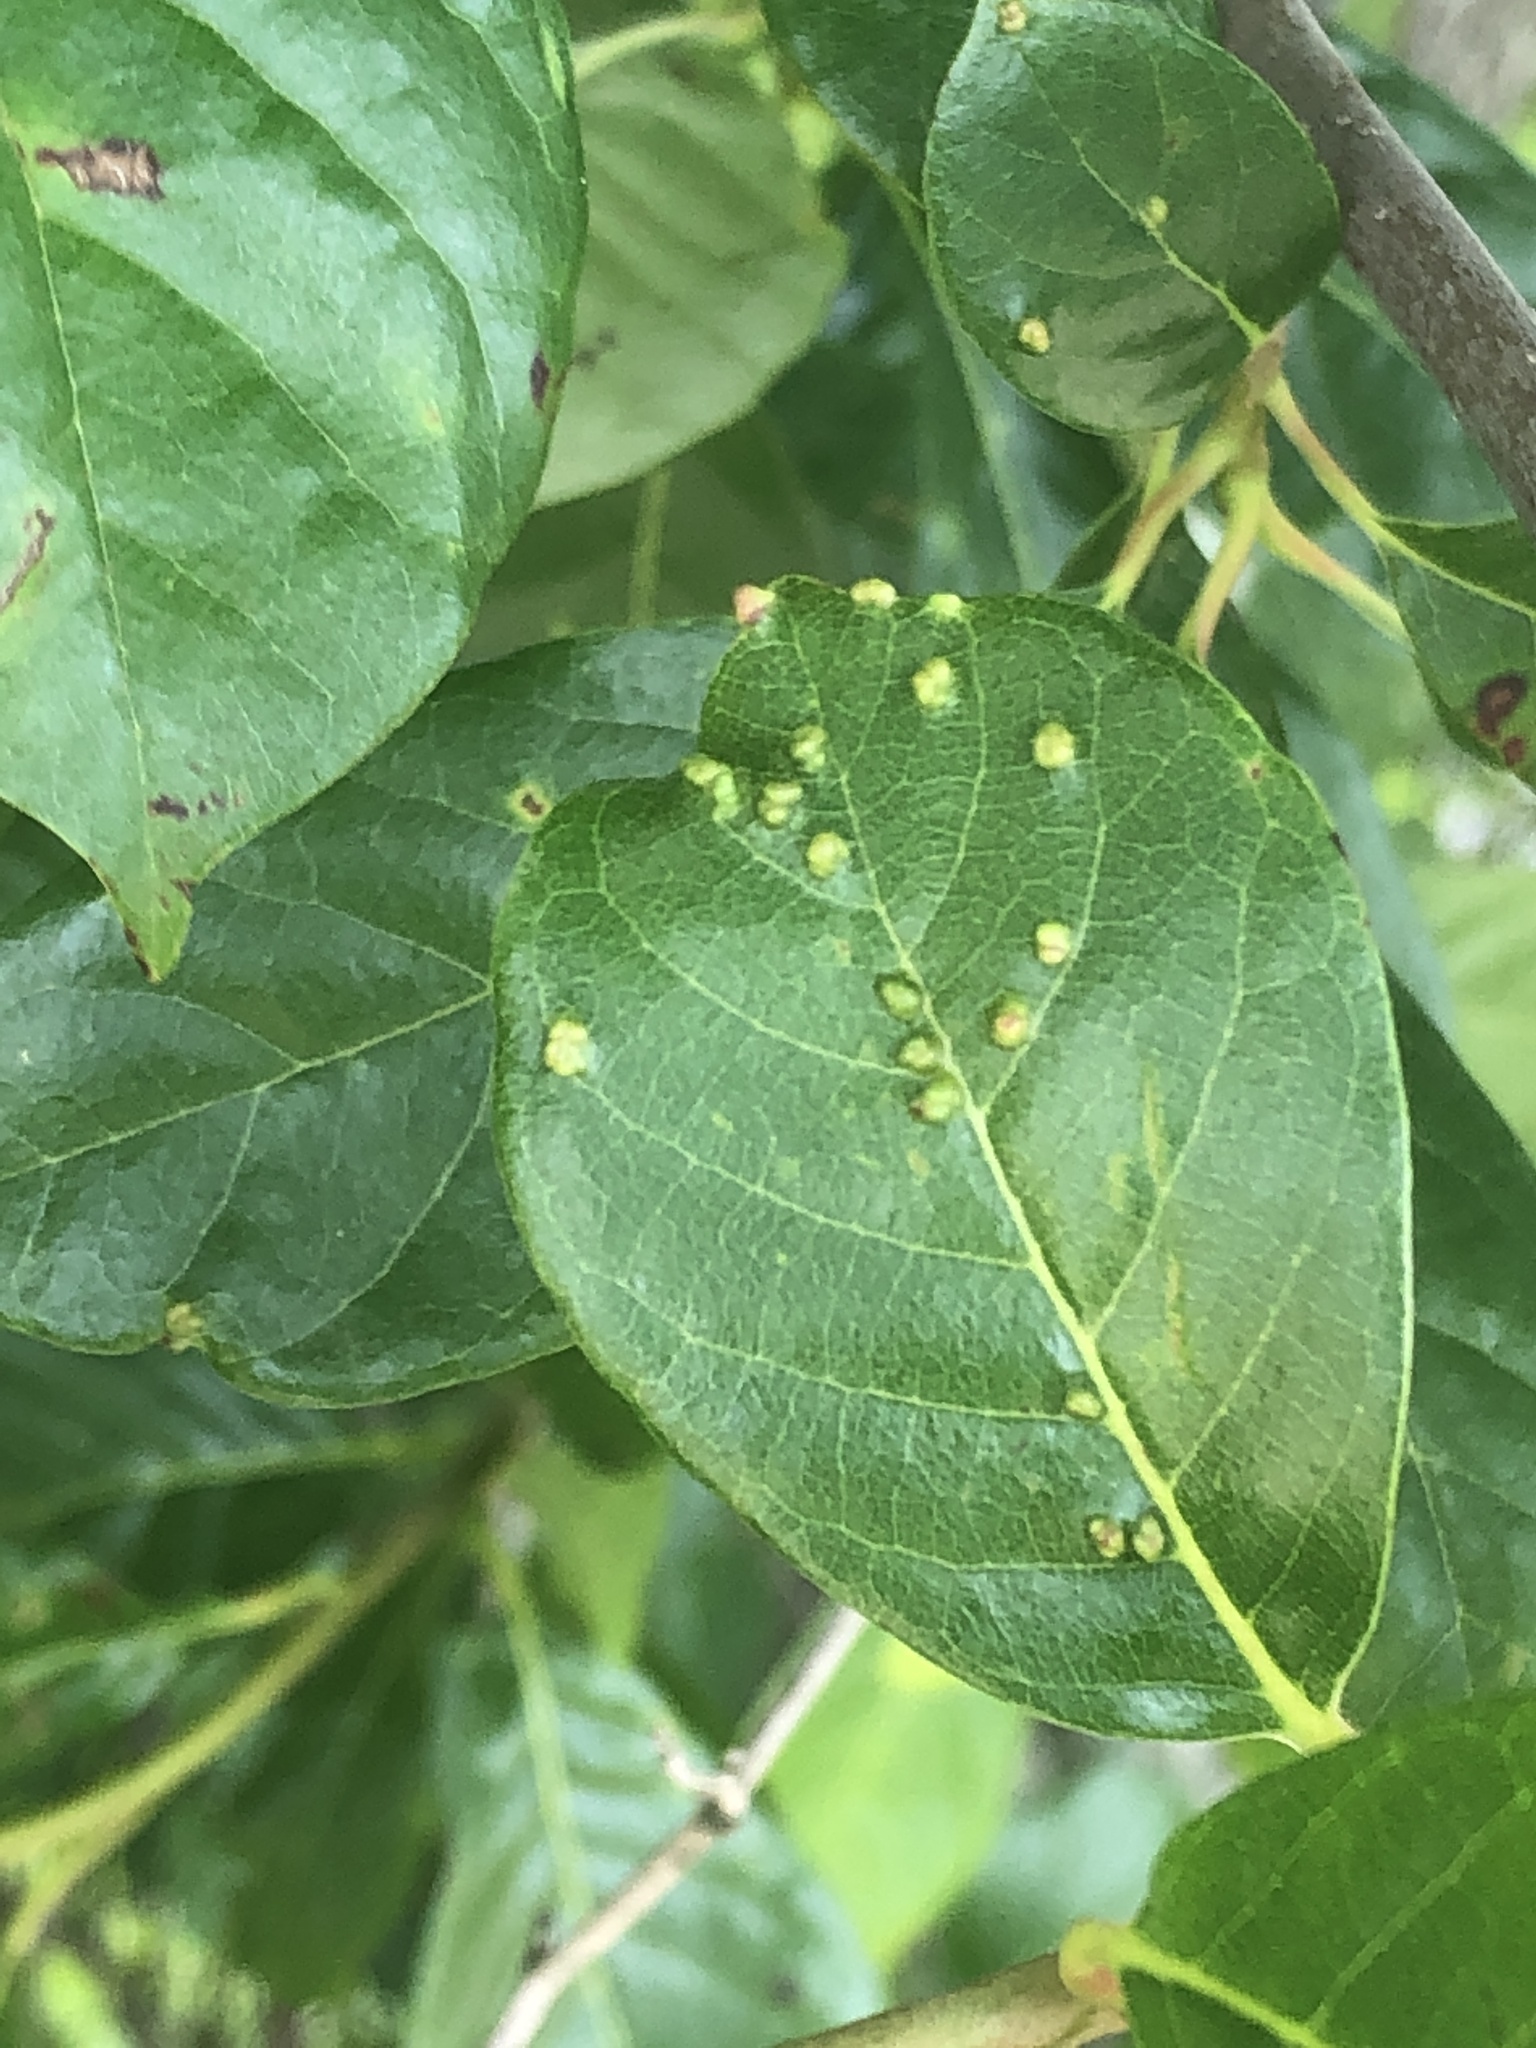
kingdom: Animalia
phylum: Arthropoda
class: Arachnida
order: Trombidiformes
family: Eriophyidae
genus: Aceria
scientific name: Aceria
